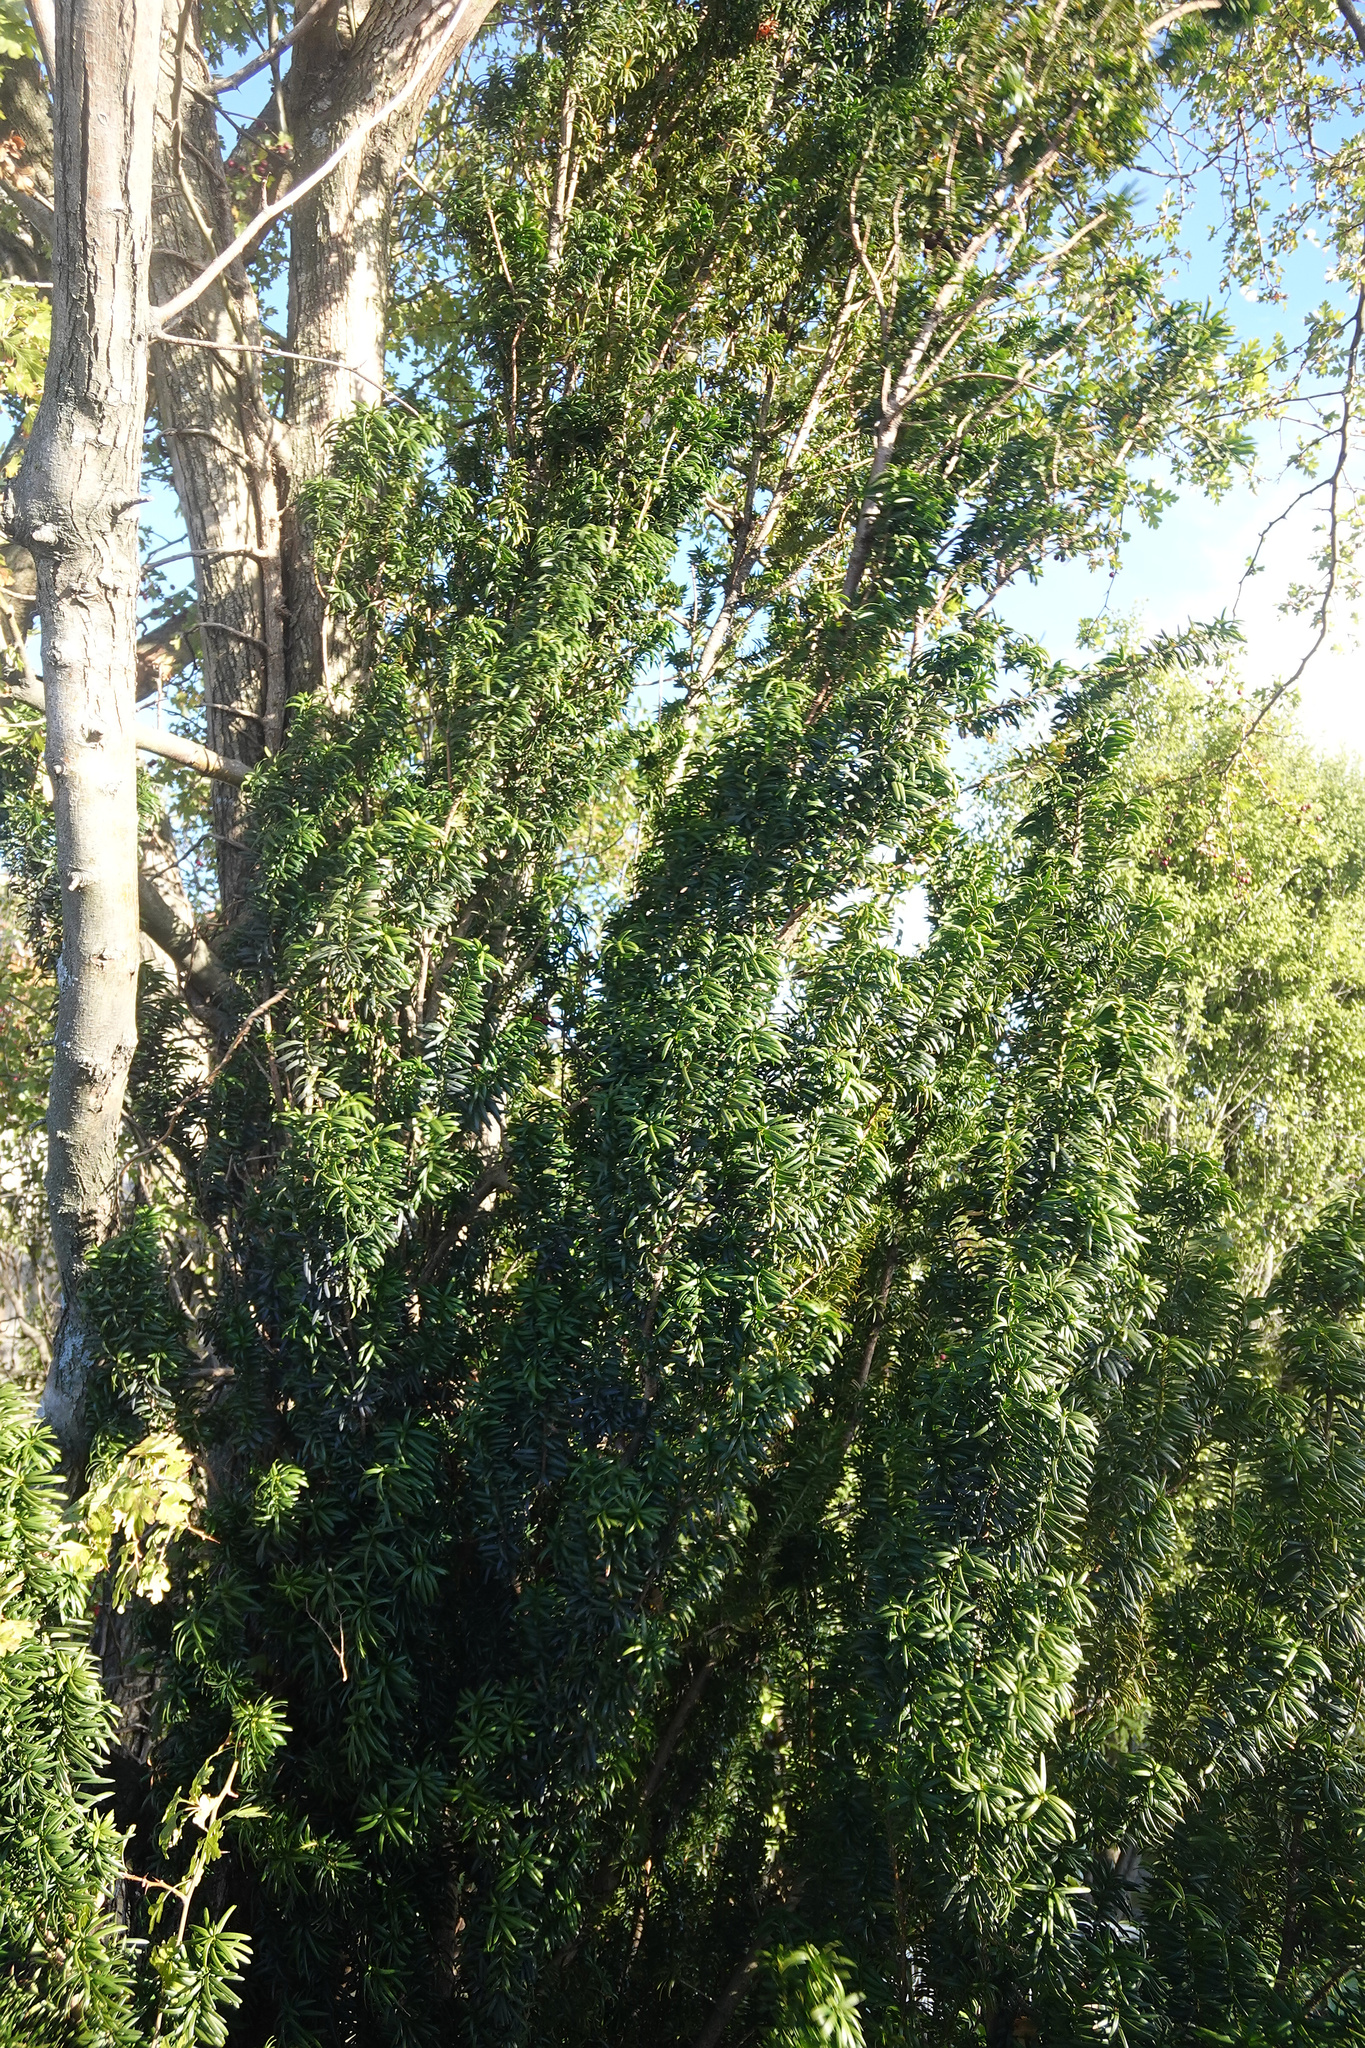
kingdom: Plantae
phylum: Tracheophyta
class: Pinopsida
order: Pinales
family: Taxaceae
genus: Taxus
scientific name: Taxus baccata
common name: Yew
